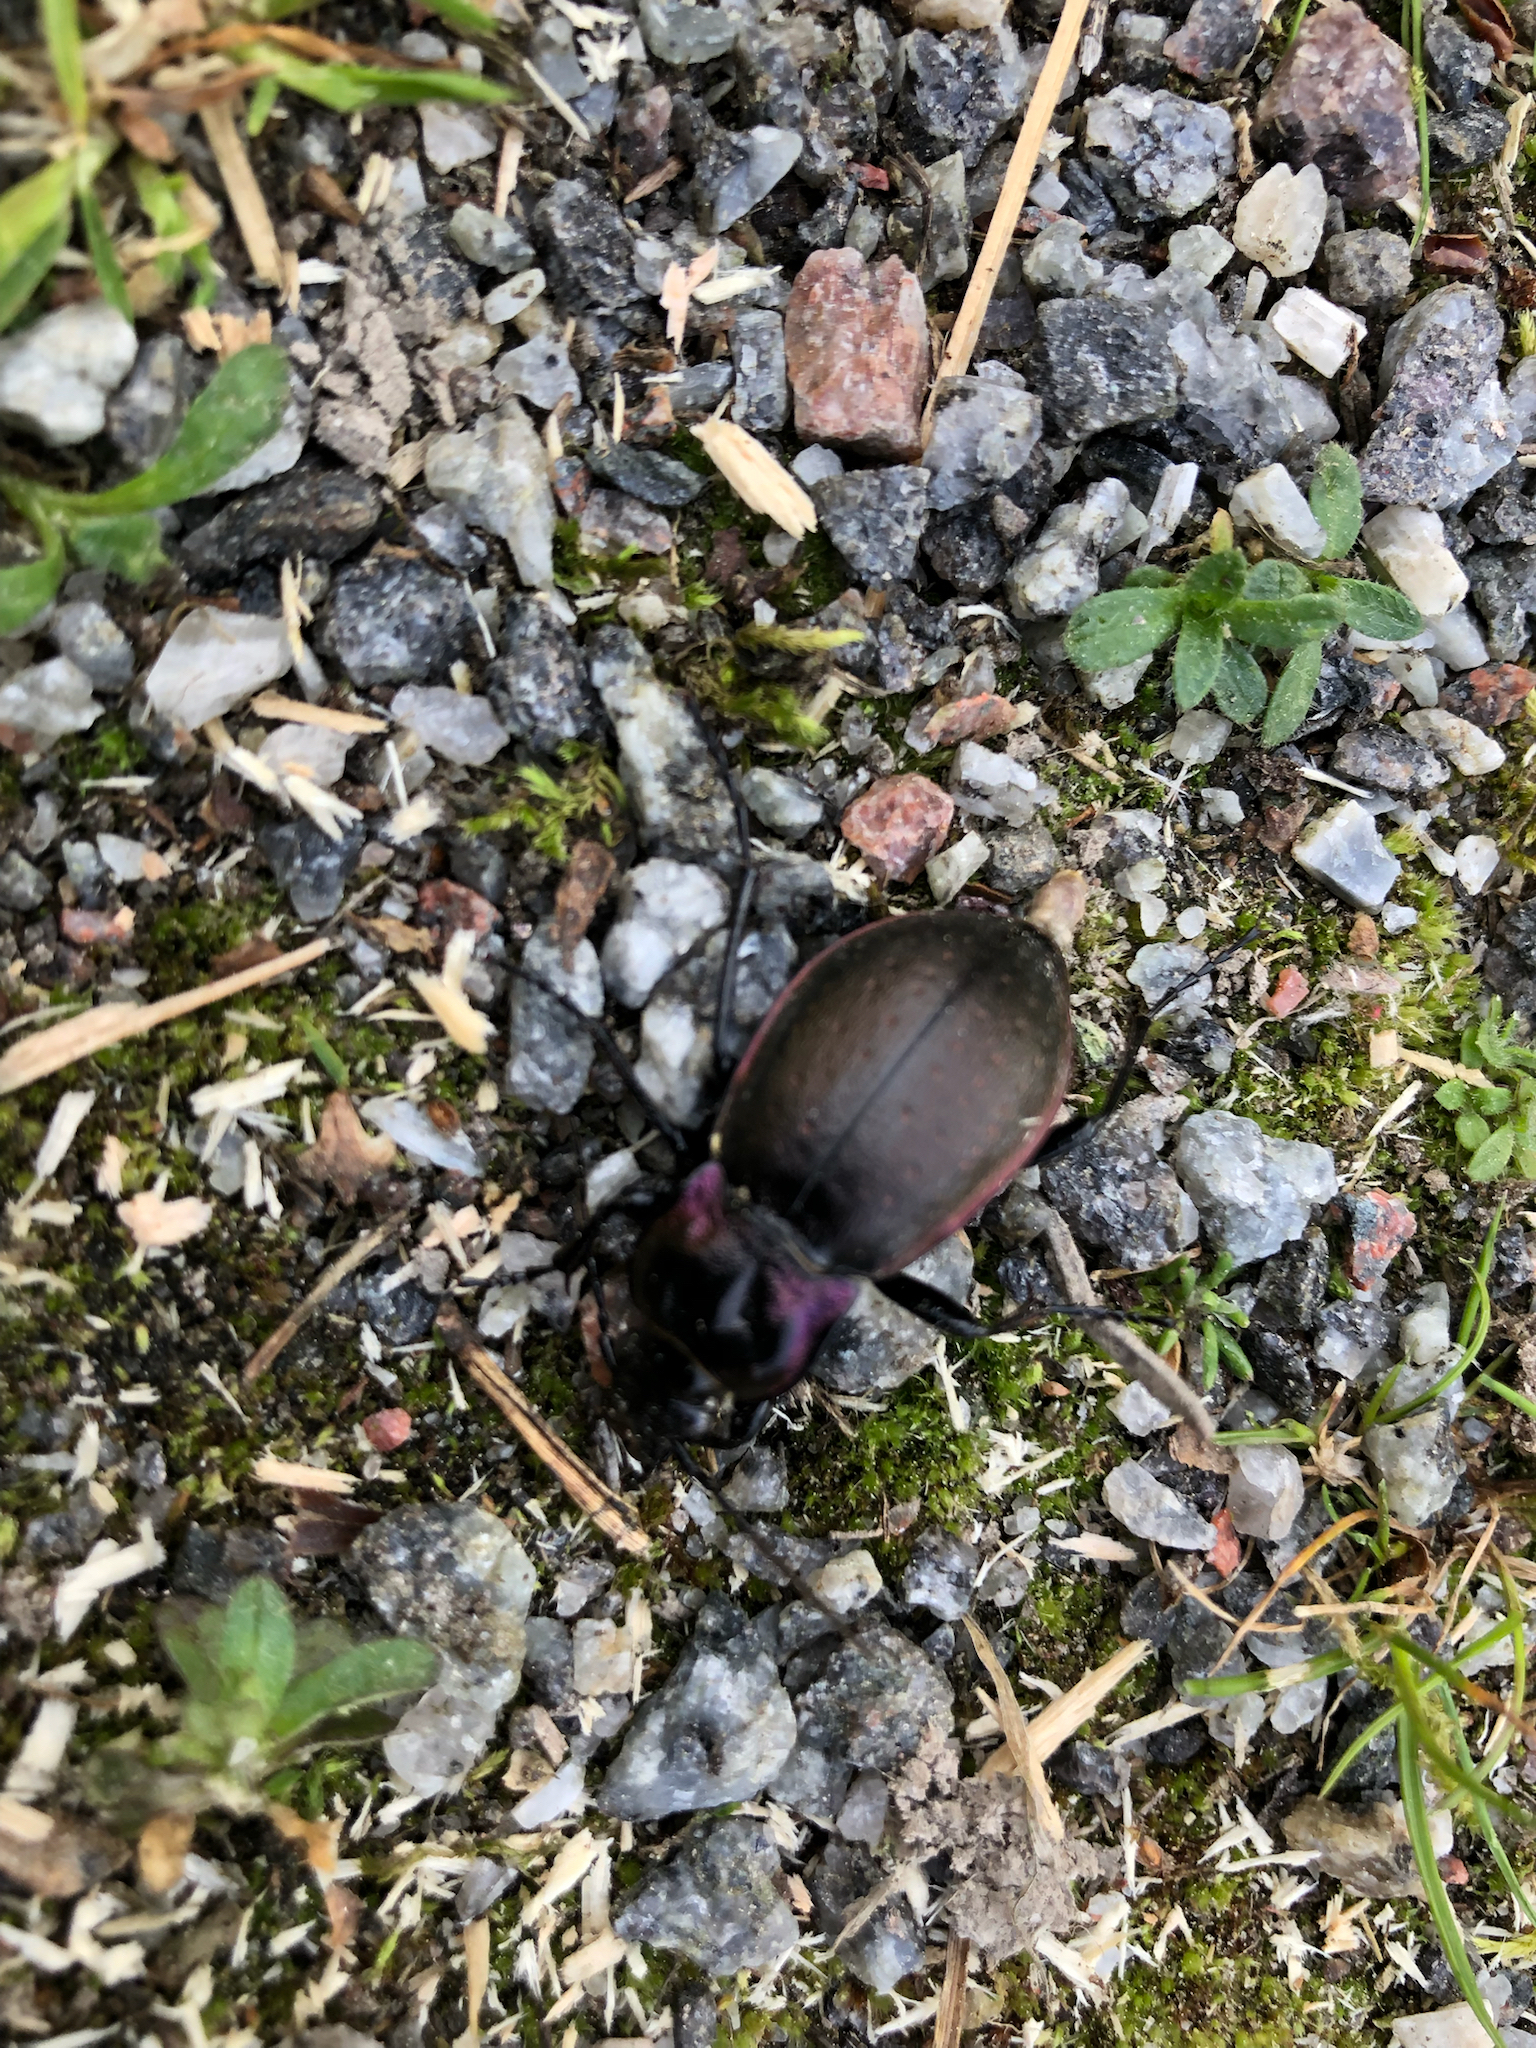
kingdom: Animalia
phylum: Arthropoda
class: Insecta
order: Coleoptera
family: Carabidae
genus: Carabus
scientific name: Carabus nemoralis
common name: European ground beetle
